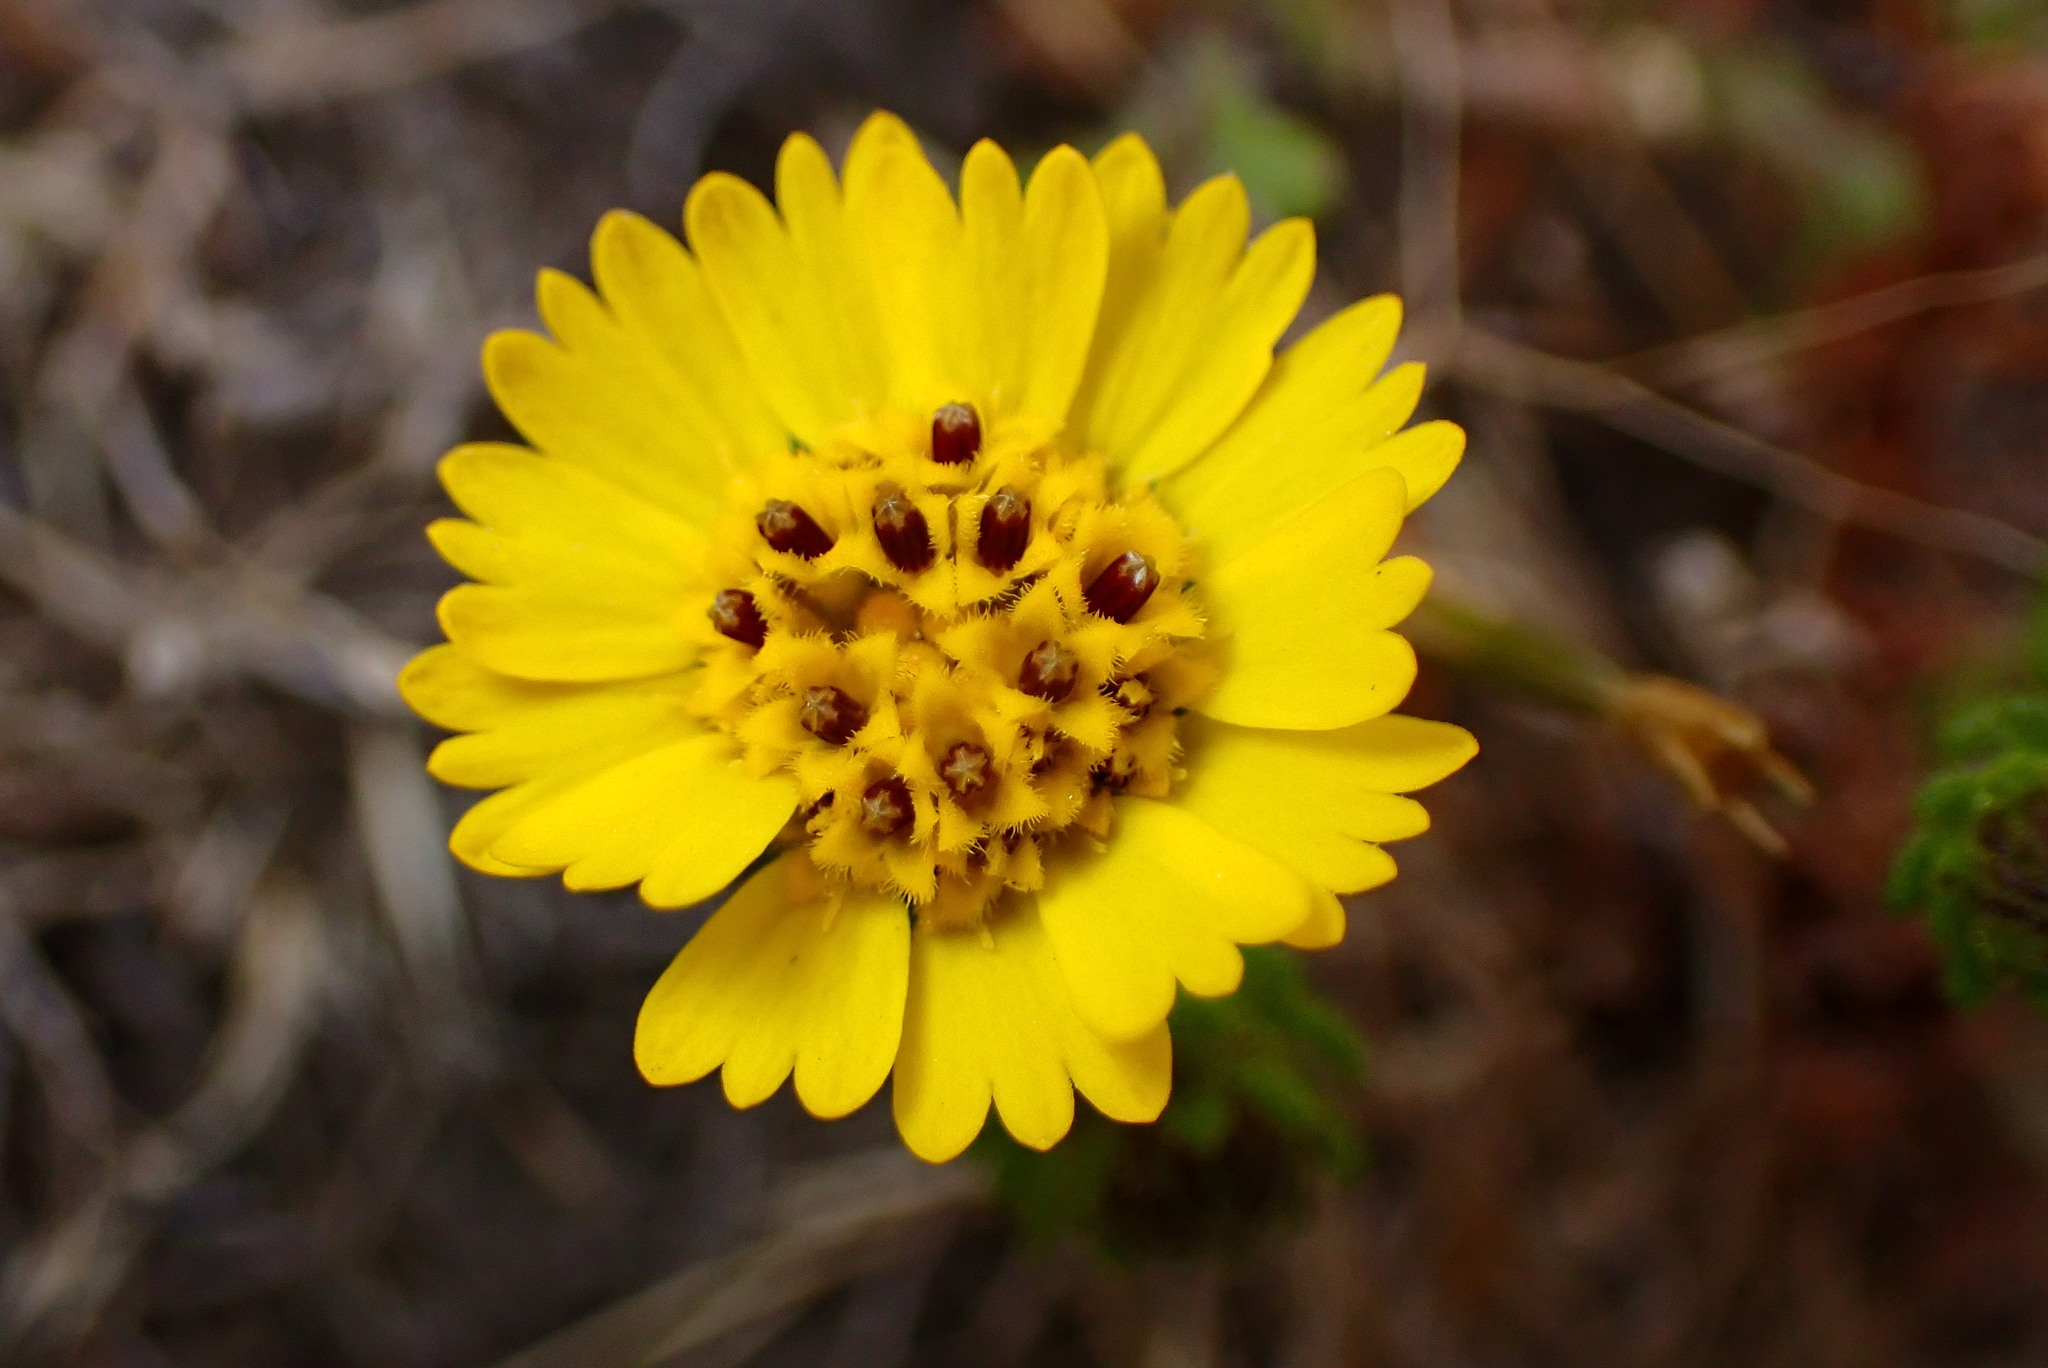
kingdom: Plantae
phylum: Tracheophyta
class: Magnoliopsida
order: Asterales
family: Asteraceae
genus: Deinandra
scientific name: Deinandra corymbosa
